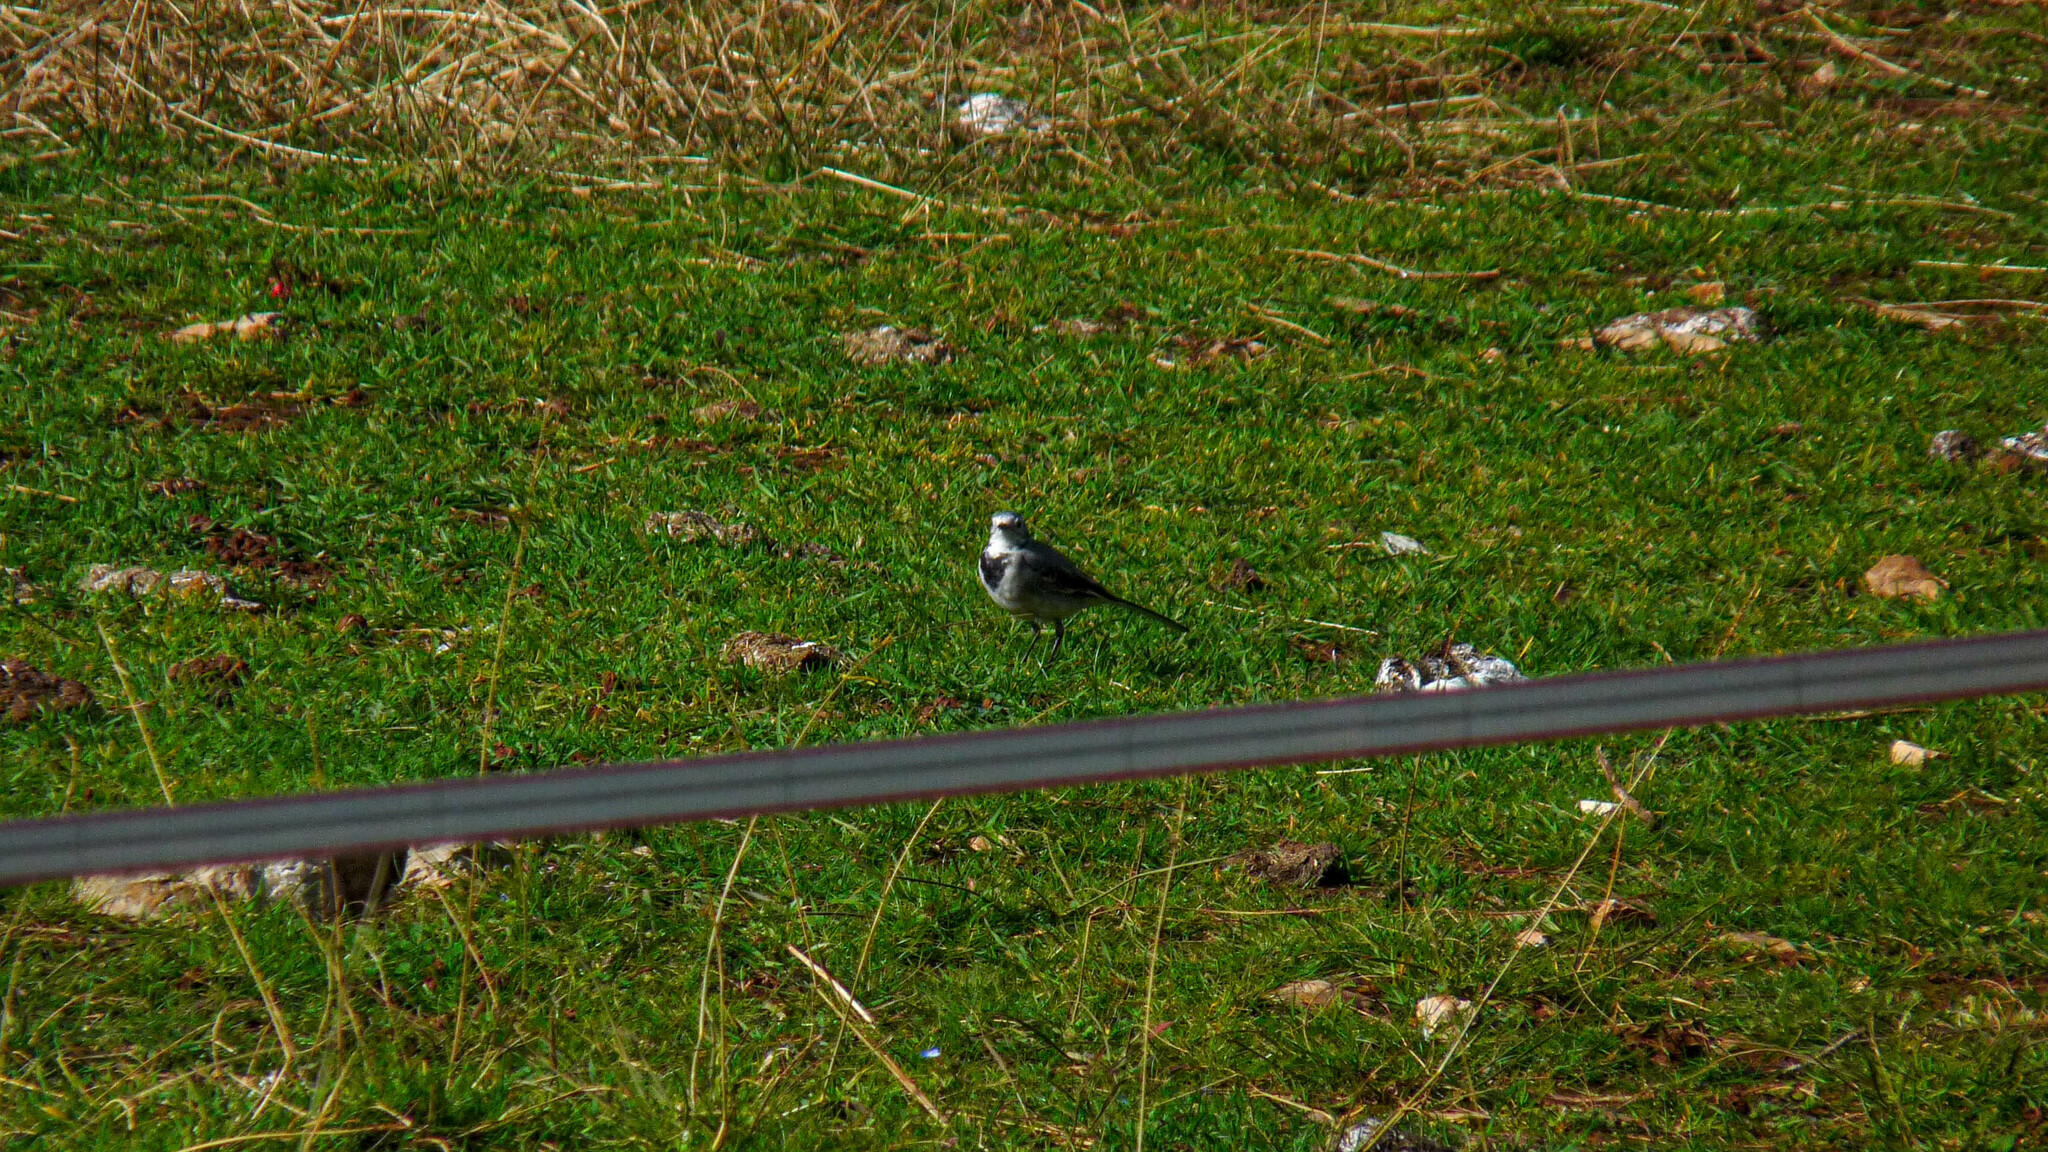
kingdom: Animalia
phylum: Chordata
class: Aves
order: Passeriformes
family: Motacillidae
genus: Motacilla
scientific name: Motacilla alba
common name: White wagtail
